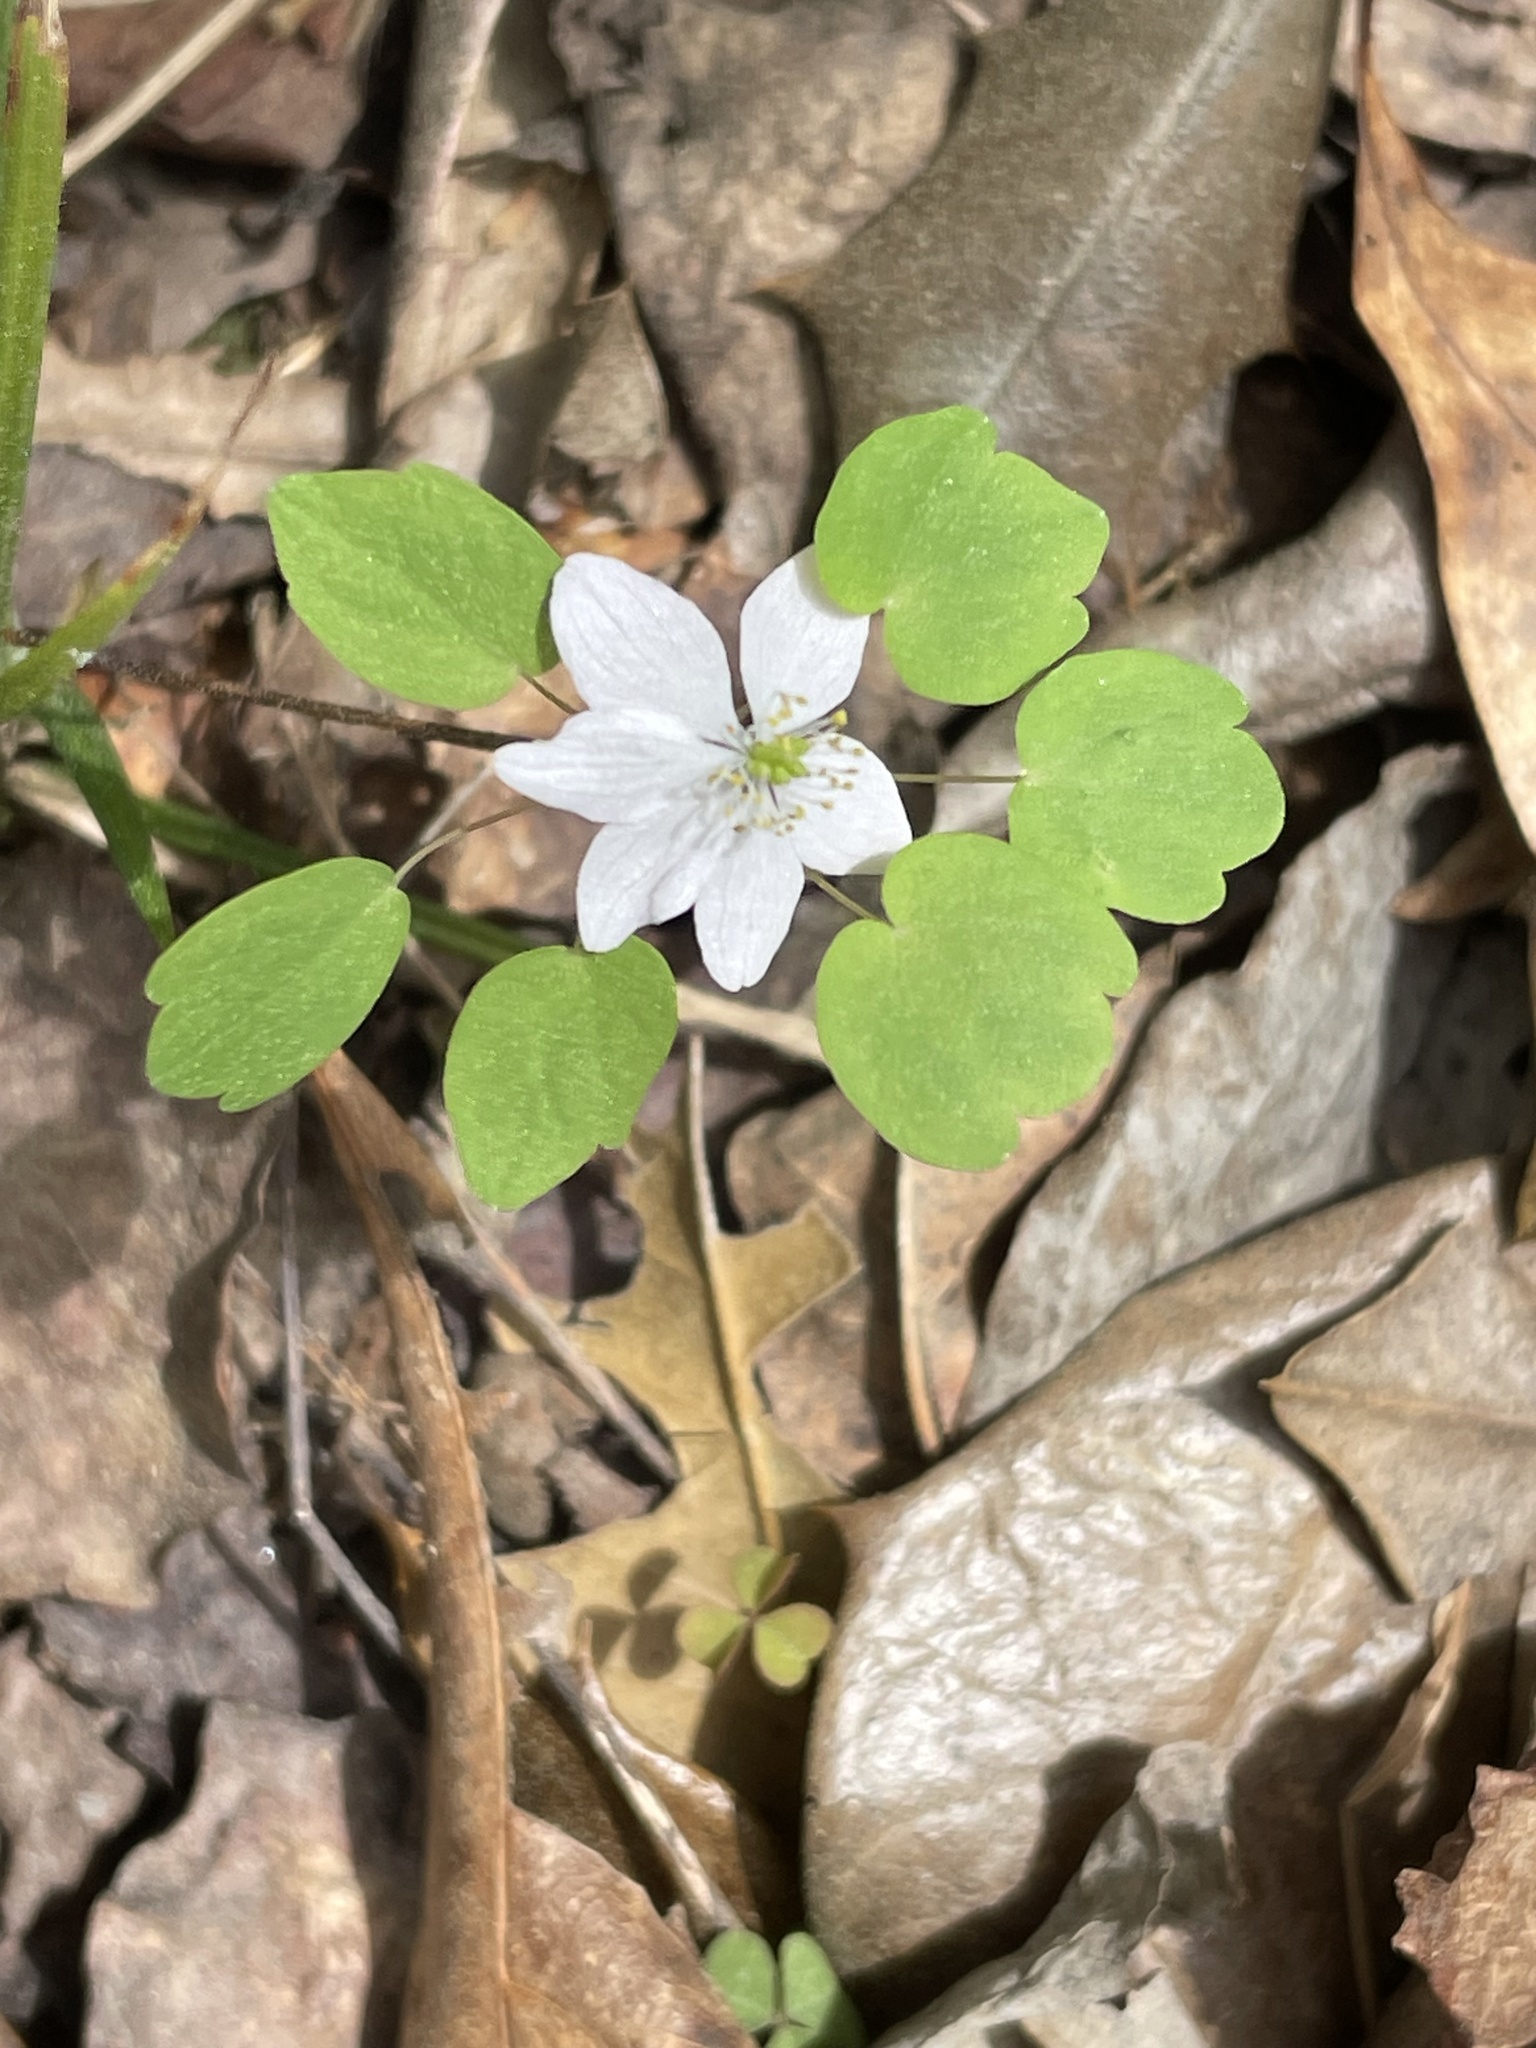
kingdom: Plantae
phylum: Tracheophyta
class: Magnoliopsida
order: Ranunculales
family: Ranunculaceae
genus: Thalictrum
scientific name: Thalictrum thalictroides
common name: Rue-anemone
